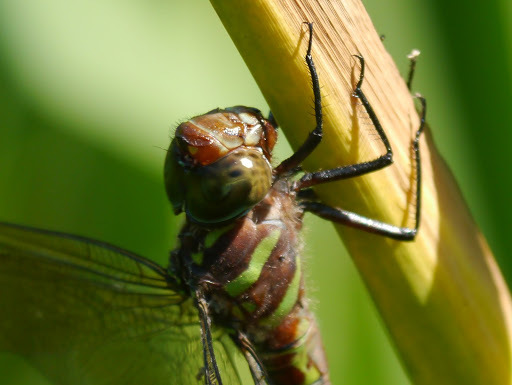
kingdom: Animalia
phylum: Arthropoda
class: Insecta
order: Odonata
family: Aeshnidae
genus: Epiaeschna
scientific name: Epiaeschna heros
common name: Swamp darner
